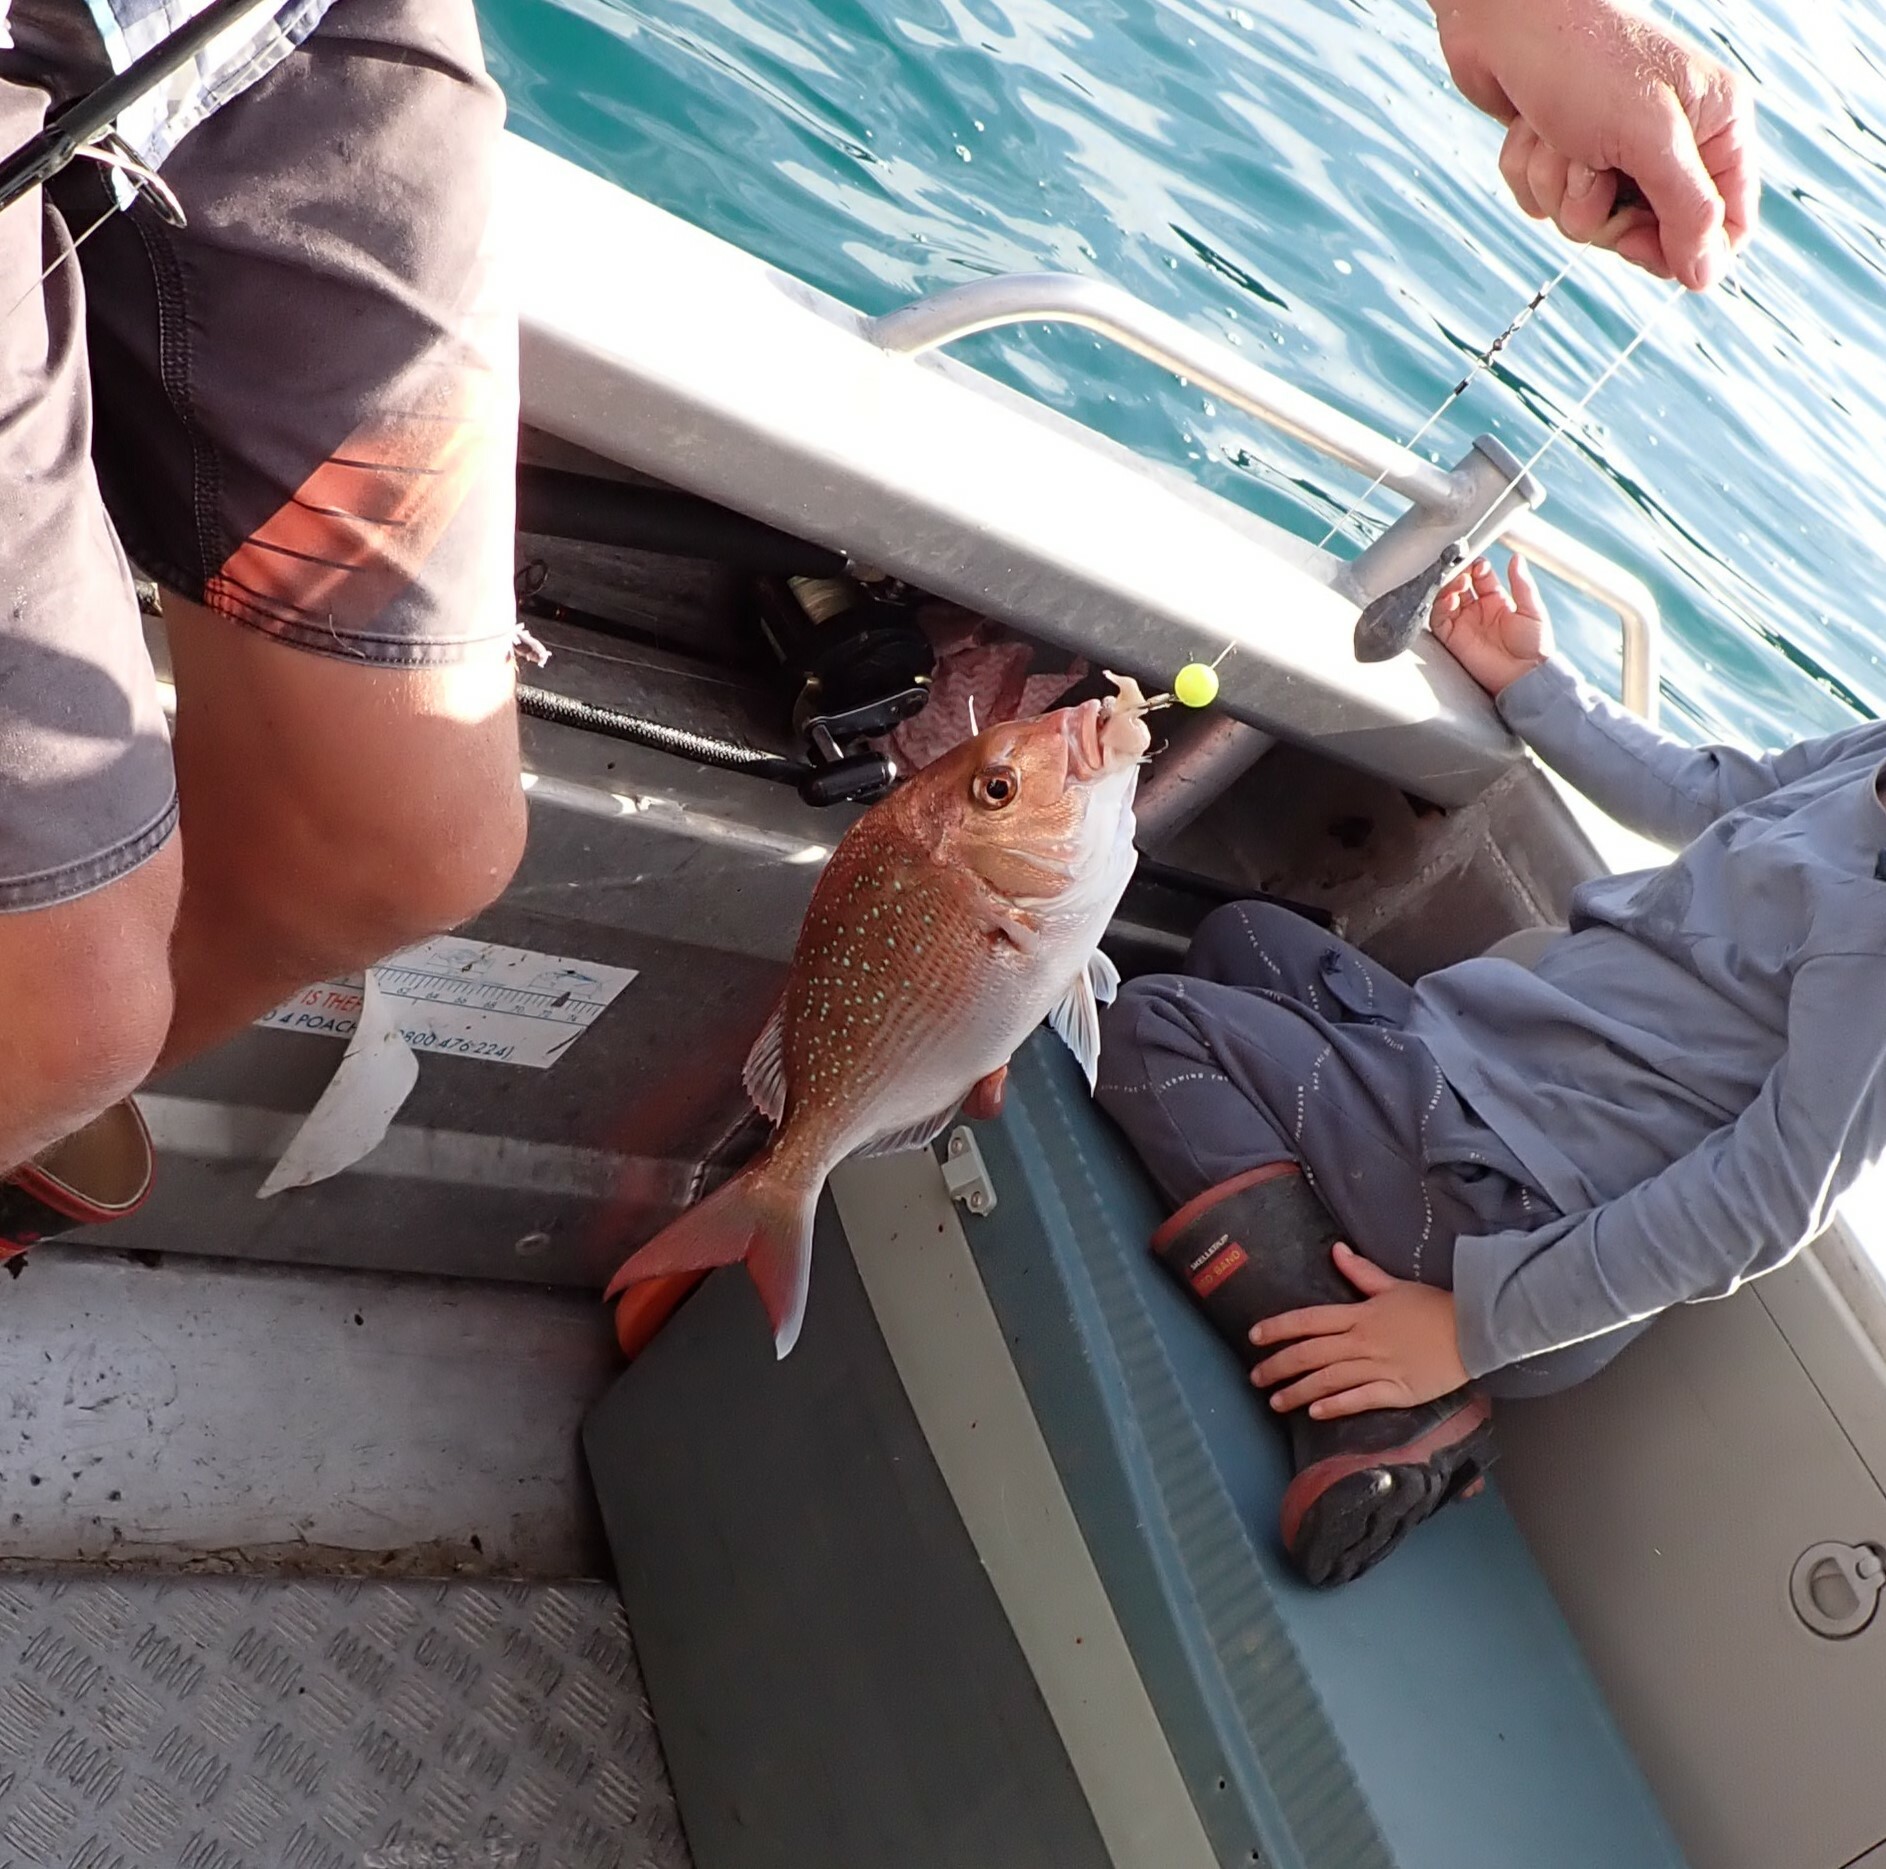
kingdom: Animalia
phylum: Chordata
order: Perciformes
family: Sparidae
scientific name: Sparidae
